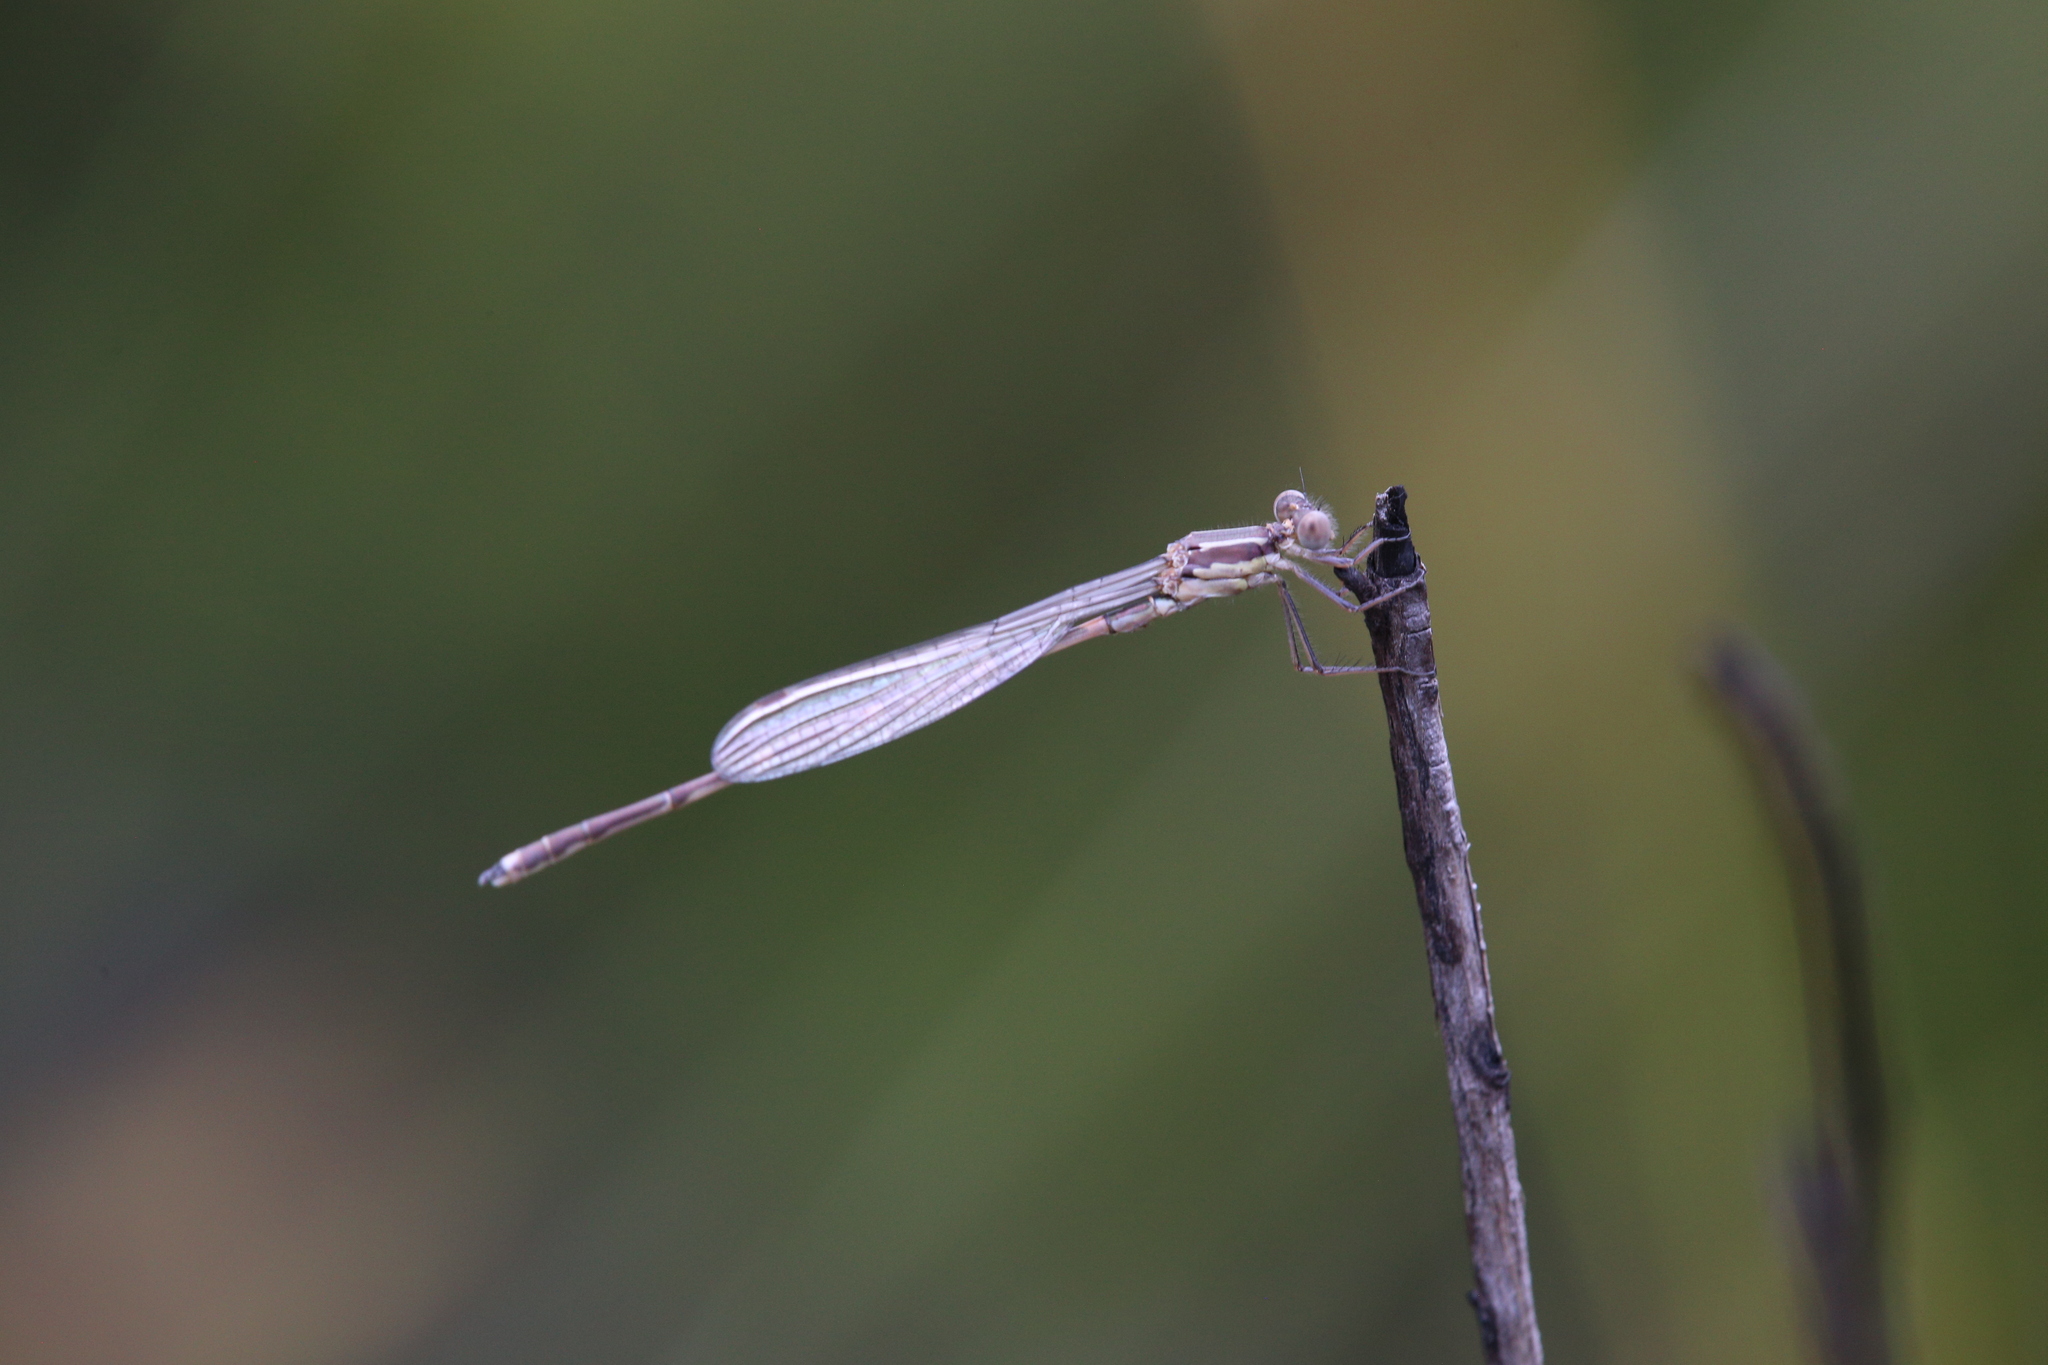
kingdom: Animalia
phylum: Arthropoda
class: Insecta
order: Odonata
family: Lestidae
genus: Austrolestes
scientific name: Austrolestes io
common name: Iota ringtail
